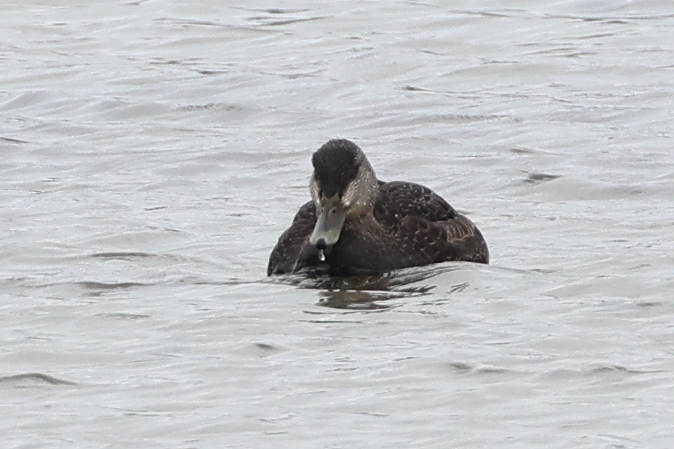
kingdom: Animalia
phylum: Chordata
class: Aves
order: Anseriformes
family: Anatidae
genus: Anas
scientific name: Anas rubripes
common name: American black duck
